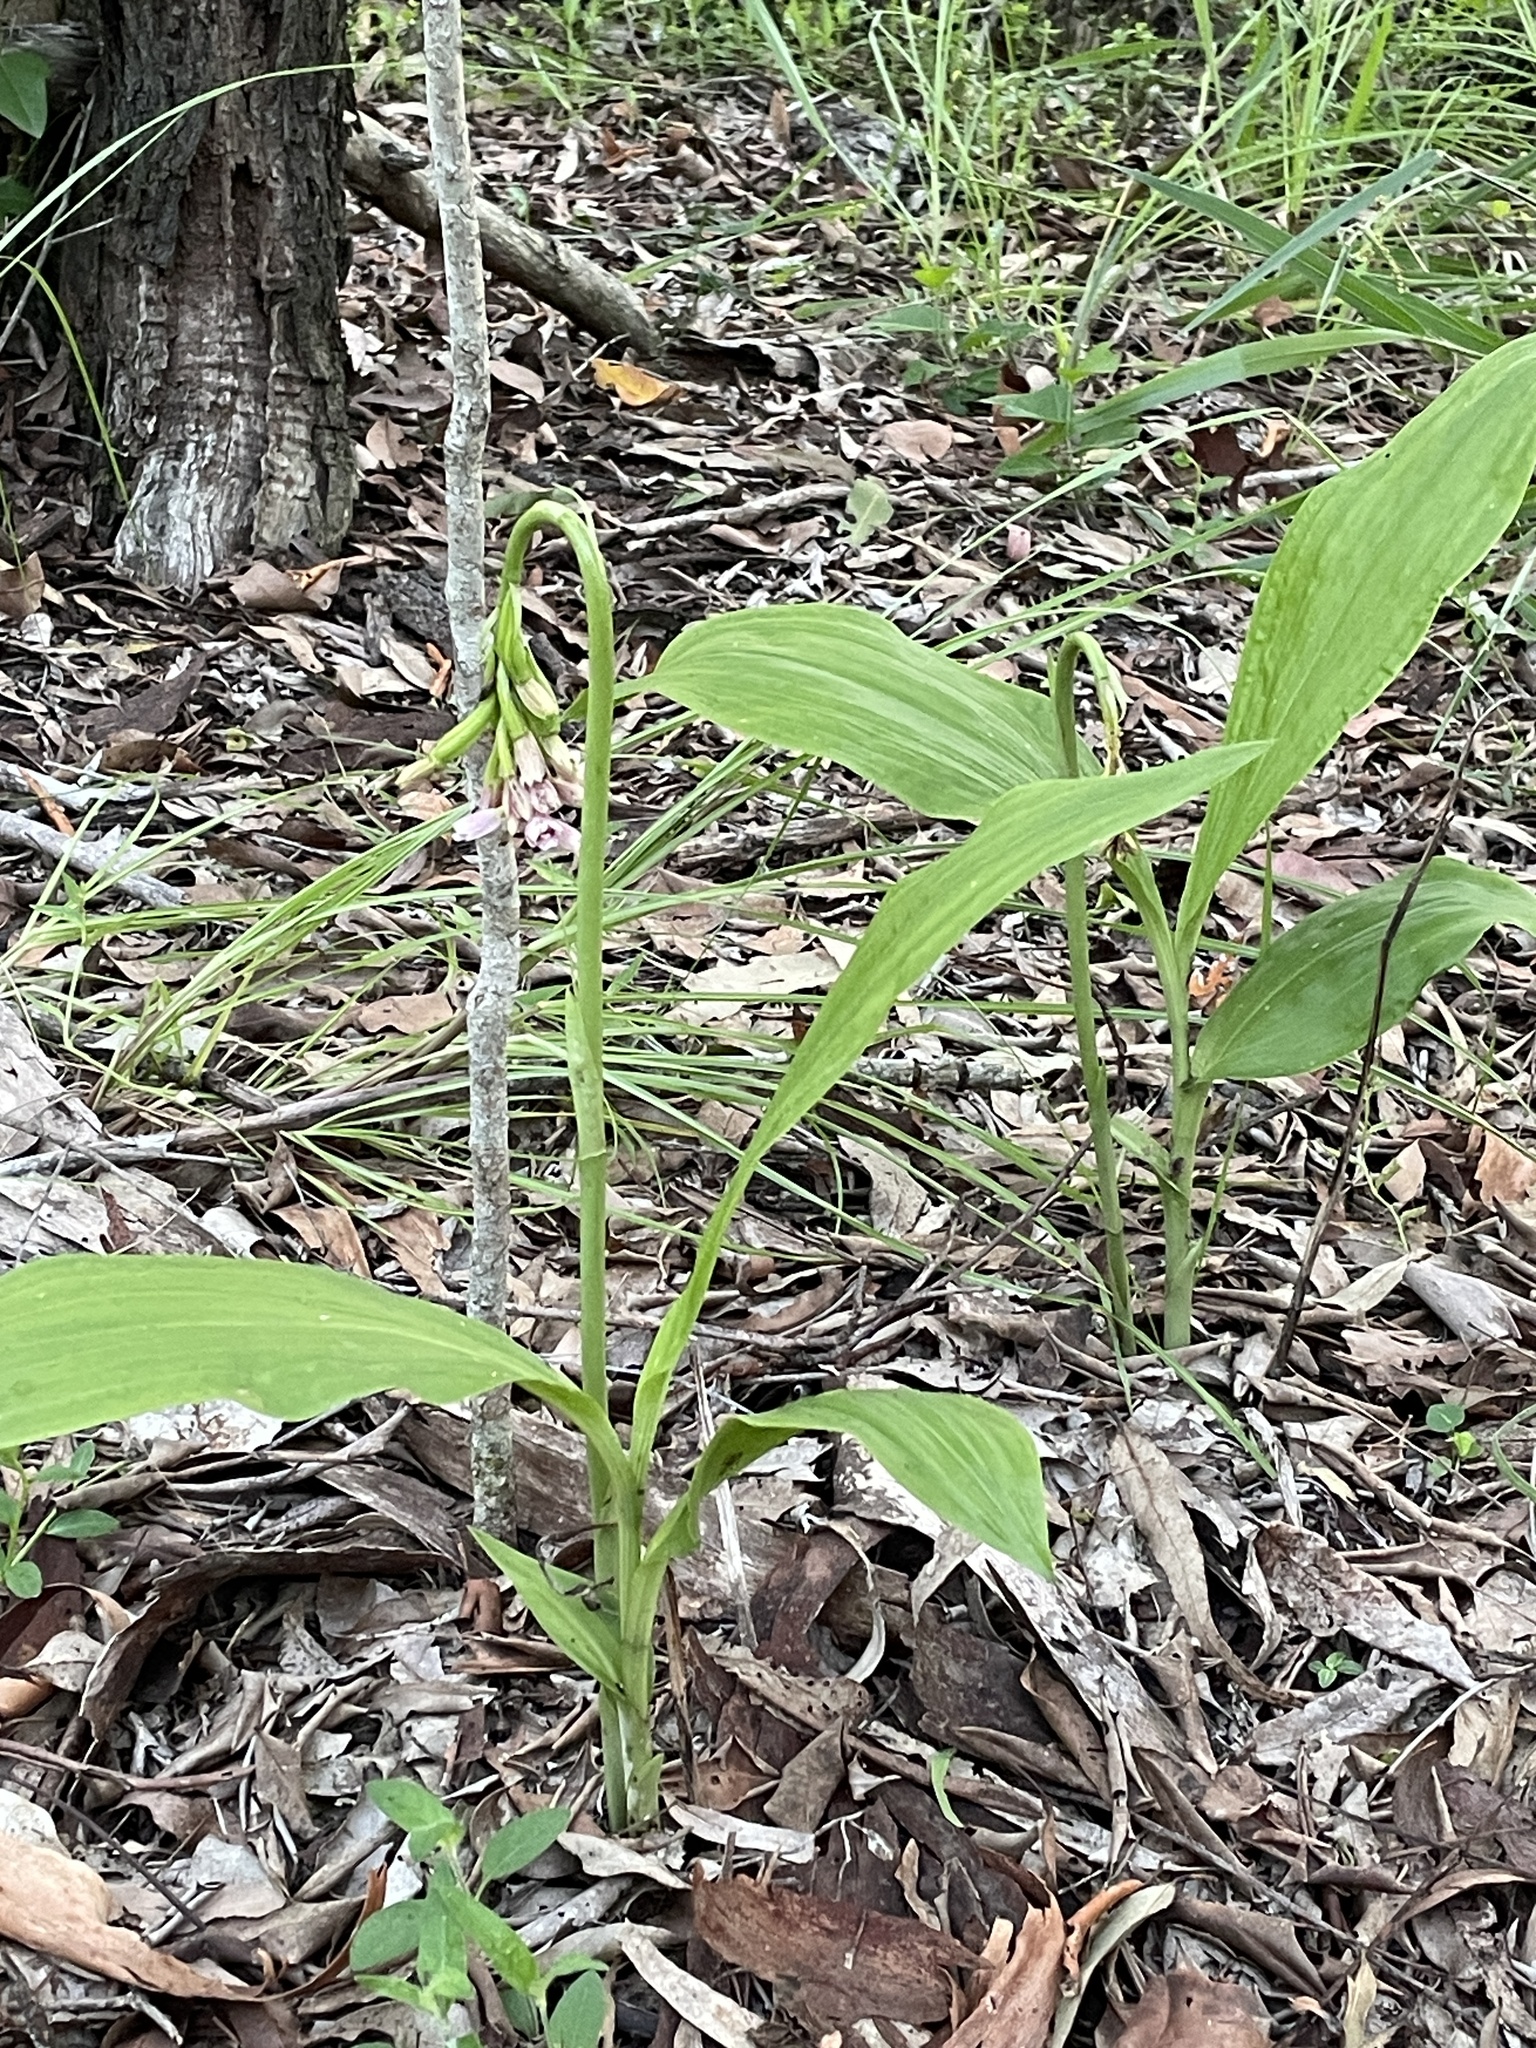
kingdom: Plantae
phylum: Tracheophyta
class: Liliopsida
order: Asparagales
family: Orchidaceae
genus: Eulophia
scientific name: Eulophia cernua
